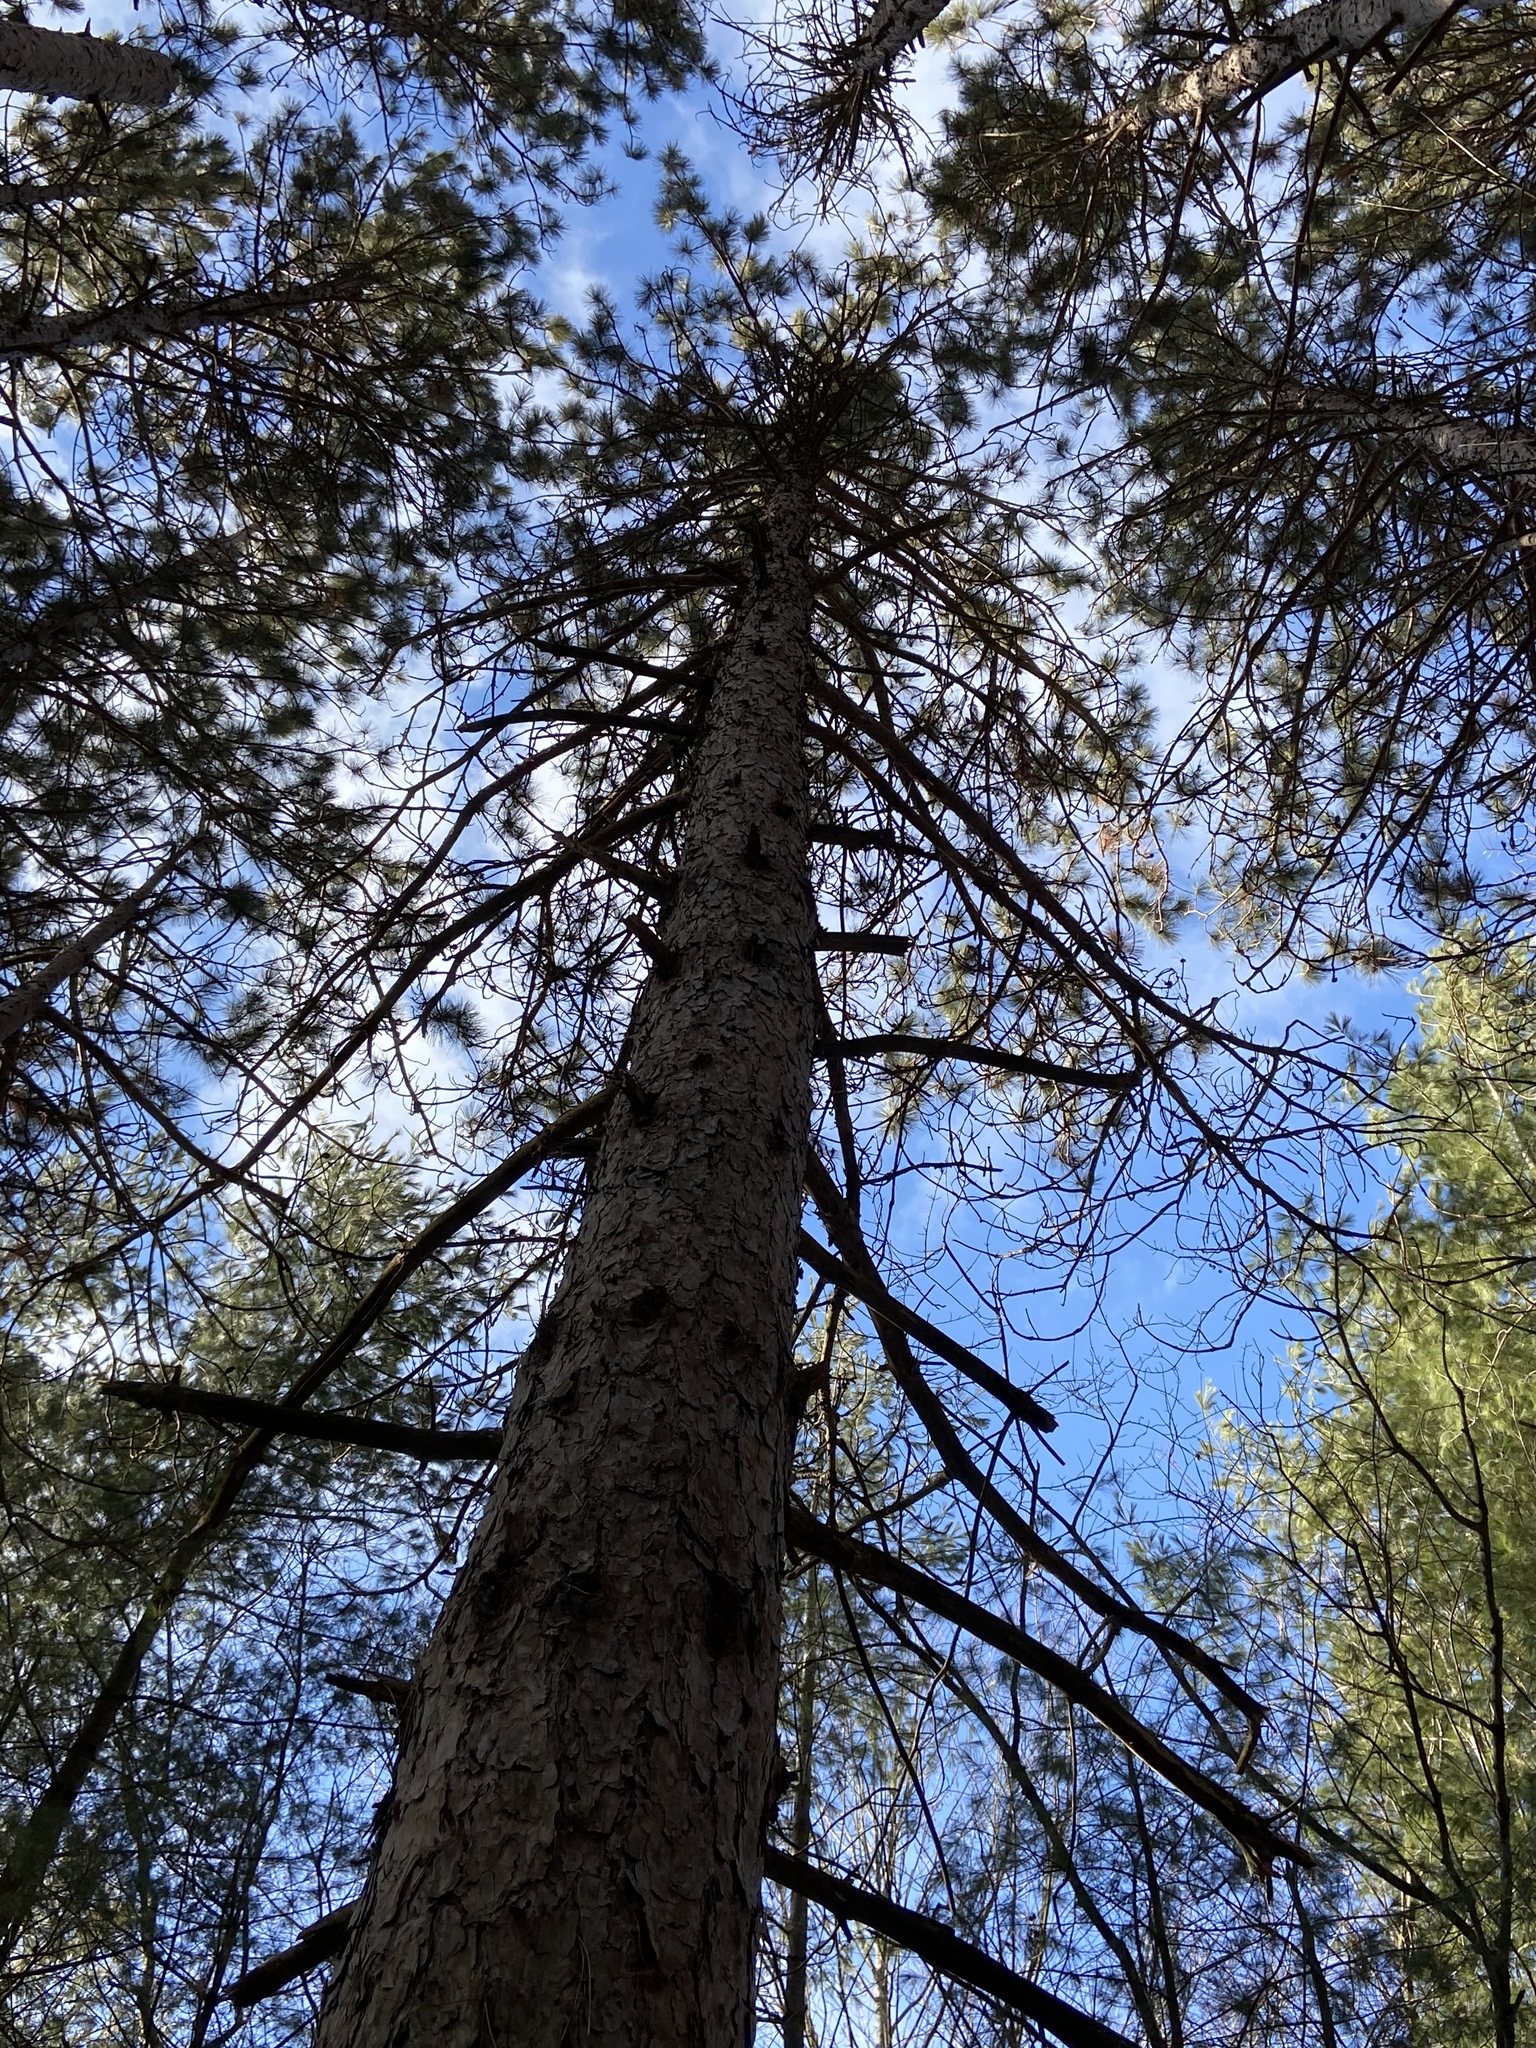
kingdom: Plantae
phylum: Tracheophyta
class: Pinopsida
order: Pinales
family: Pinaceae
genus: Pinus
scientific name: Pinus resinosa
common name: Norway pine
